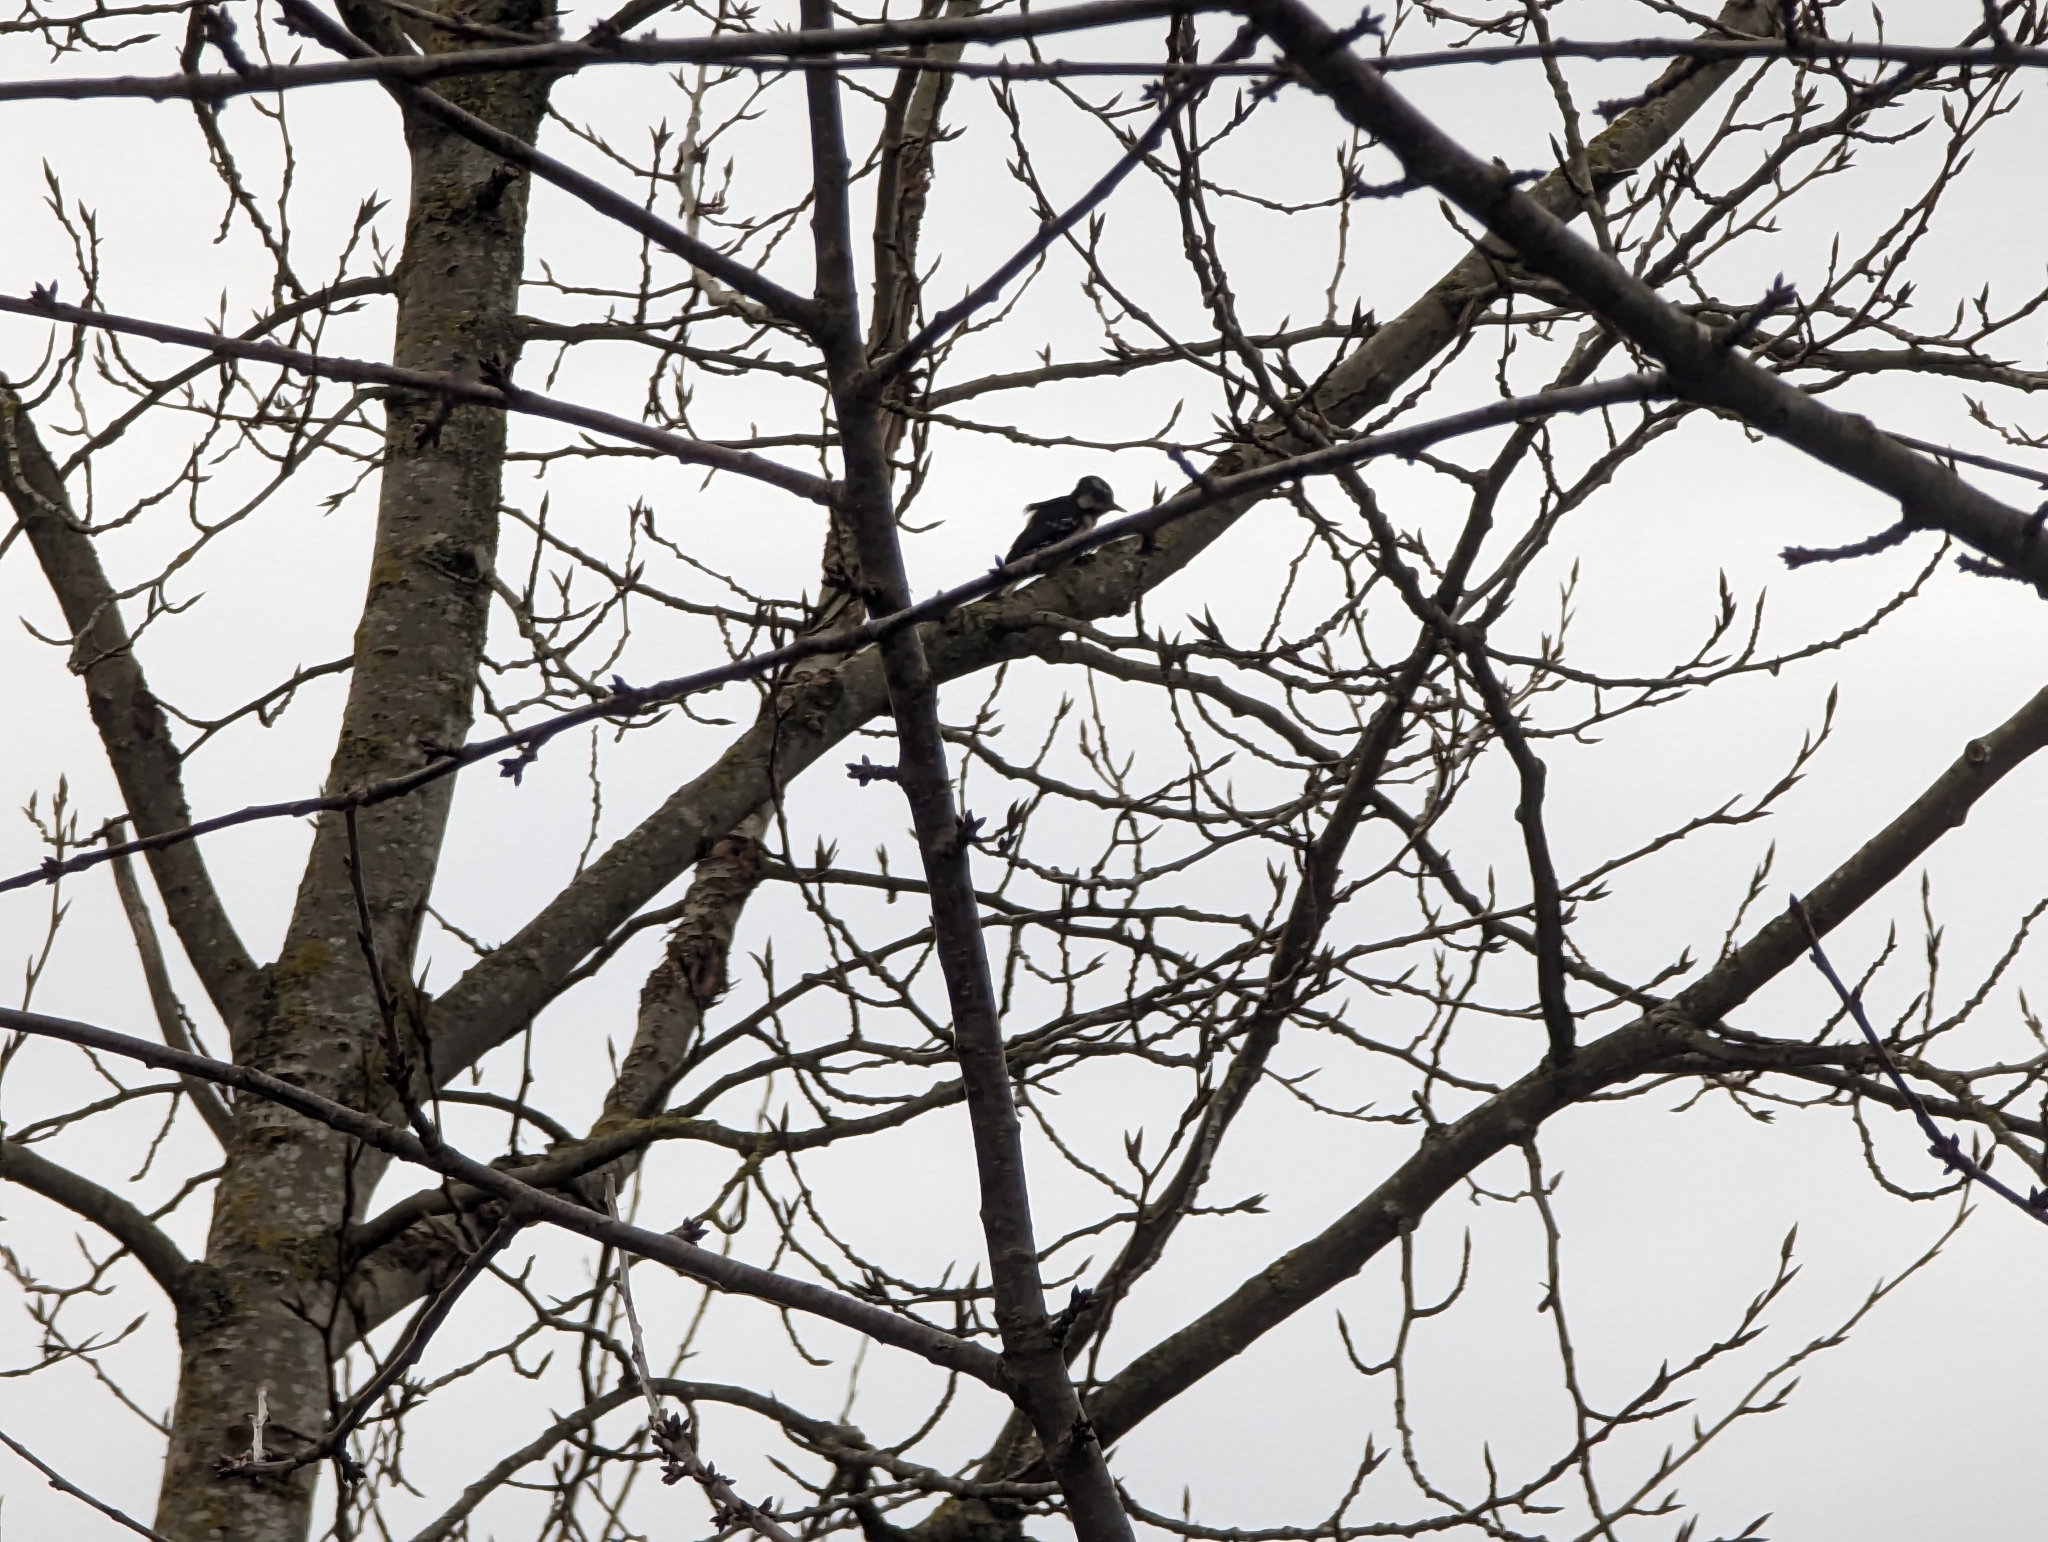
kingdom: Animalia
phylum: Chordata
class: Aves
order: Piciformes
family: Picidae
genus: Dryobates
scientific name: Dryobates pubescens
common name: Downy woodpecker
